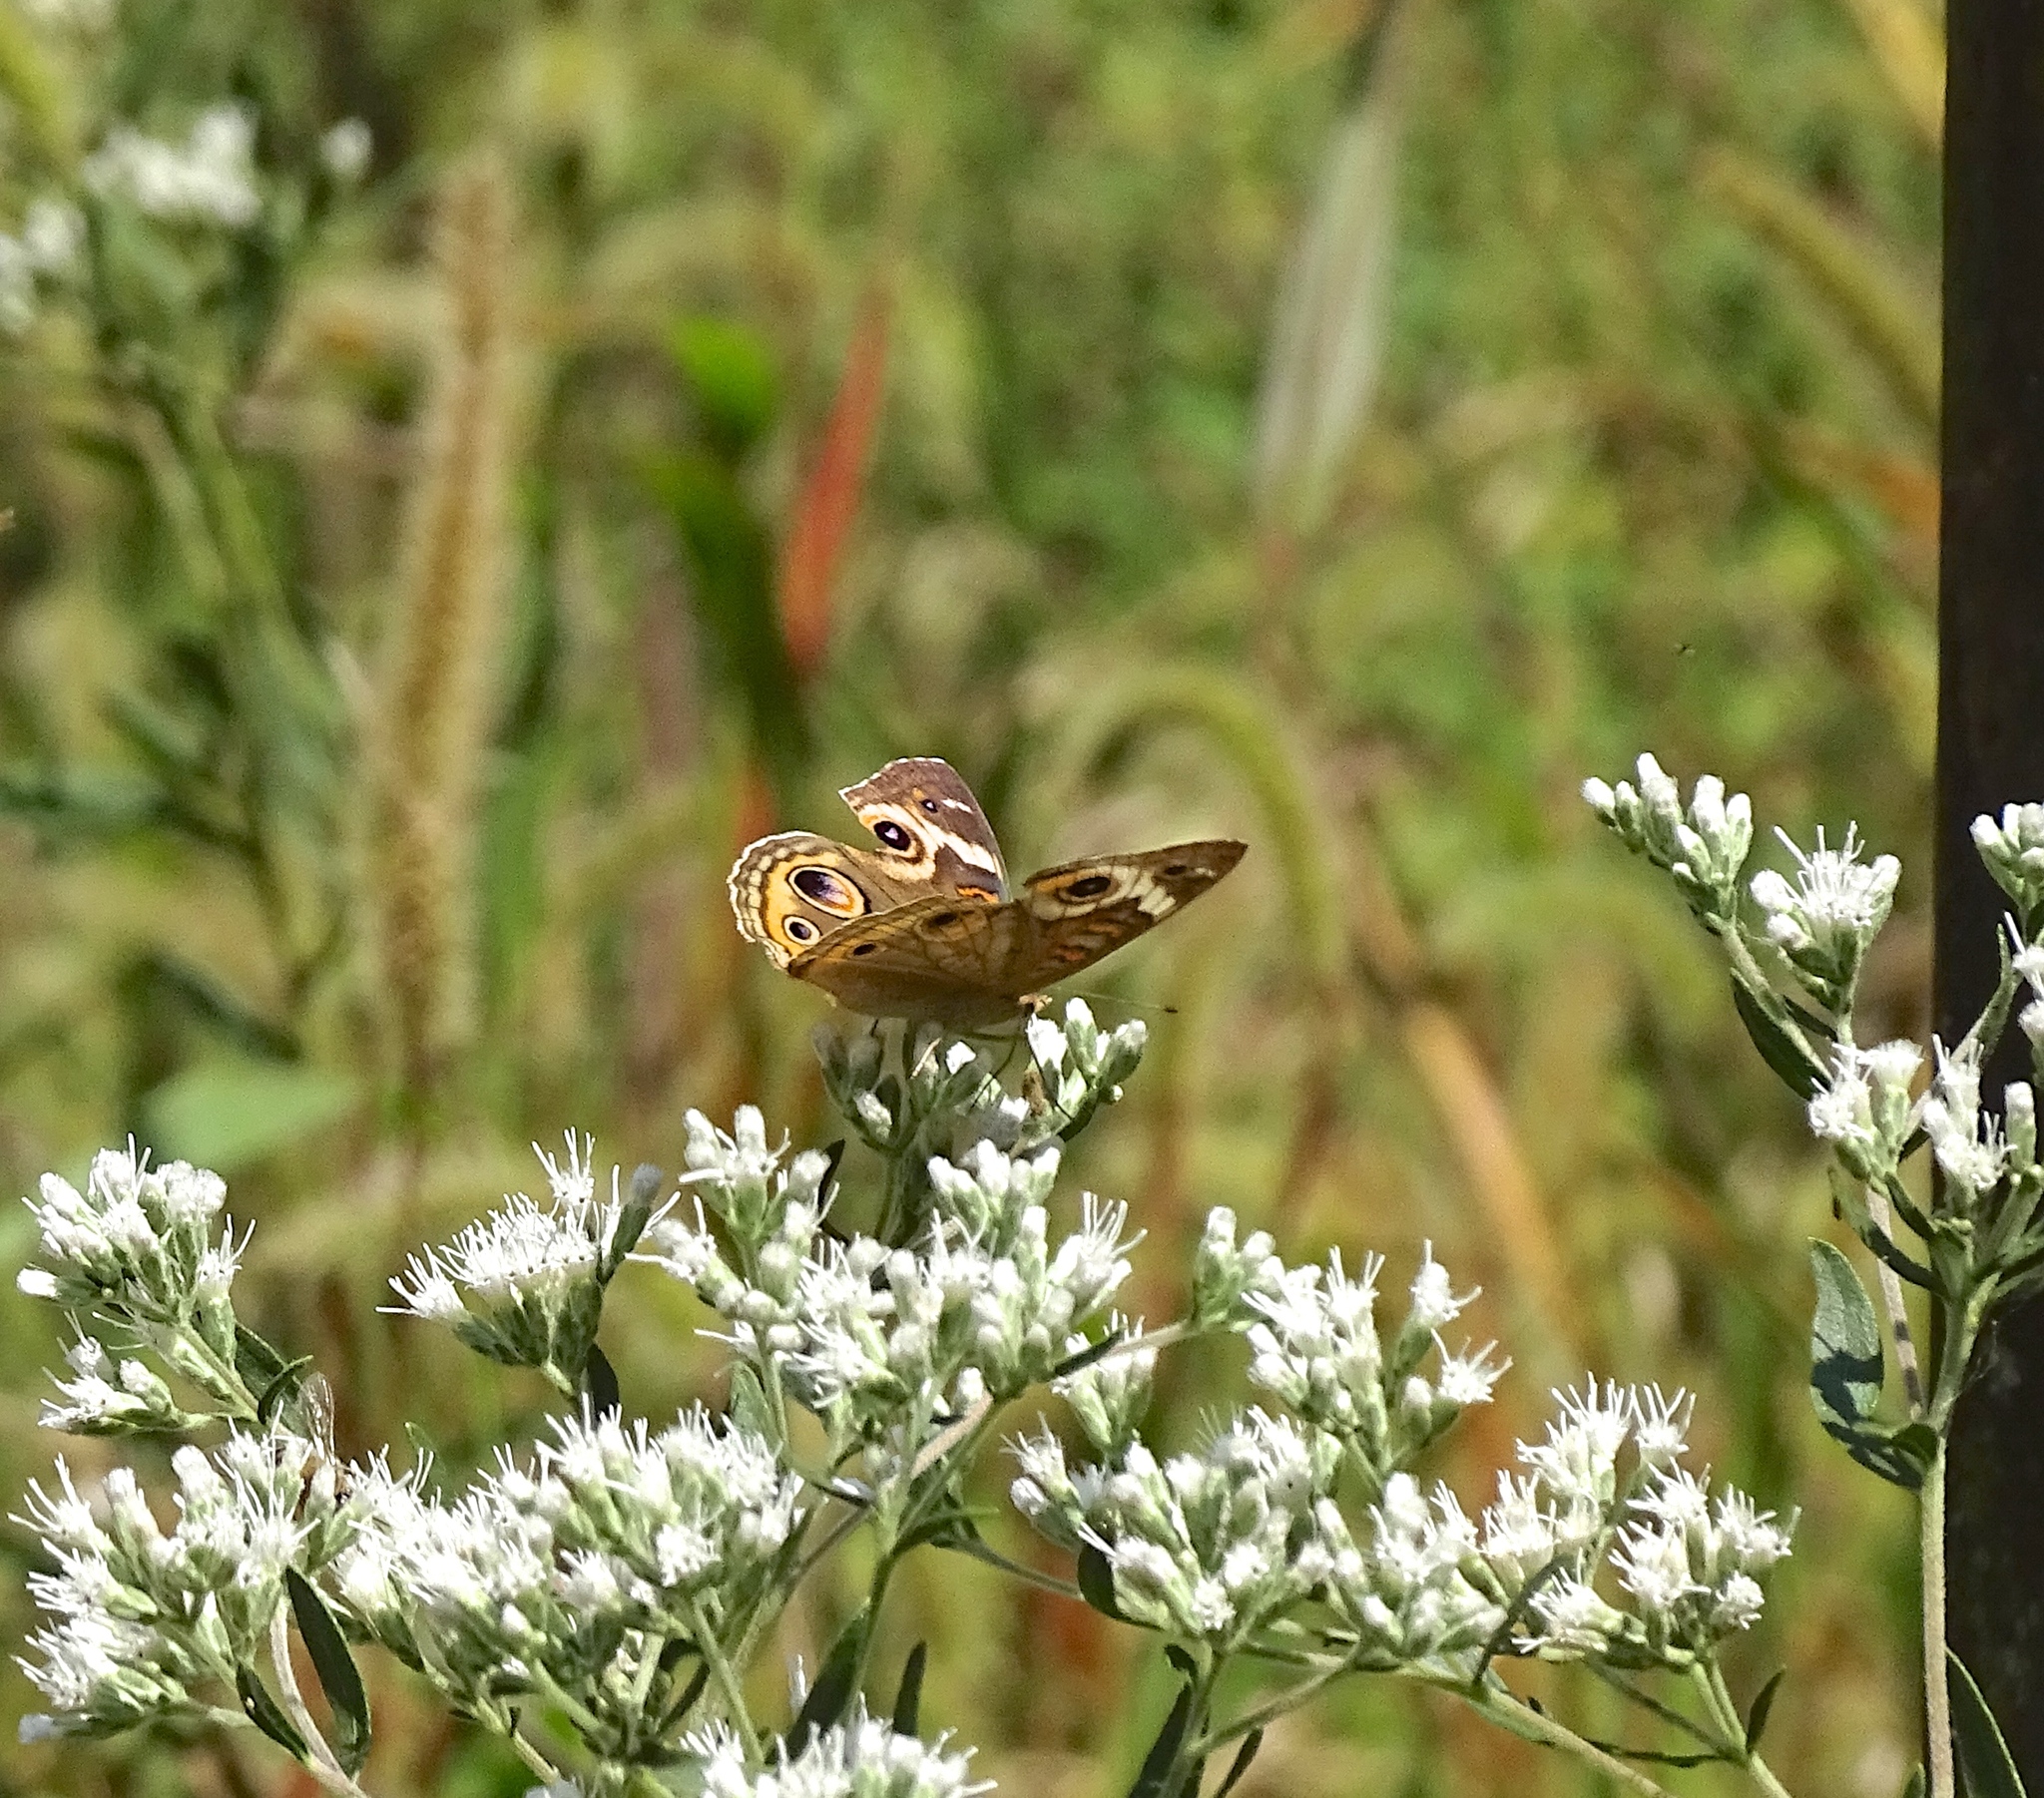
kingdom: Animalia
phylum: Arthropoda
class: Insecta
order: Lepidoptera
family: Nymphalidae
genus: Junonia
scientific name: Junonia coenia
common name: Common buckeye
